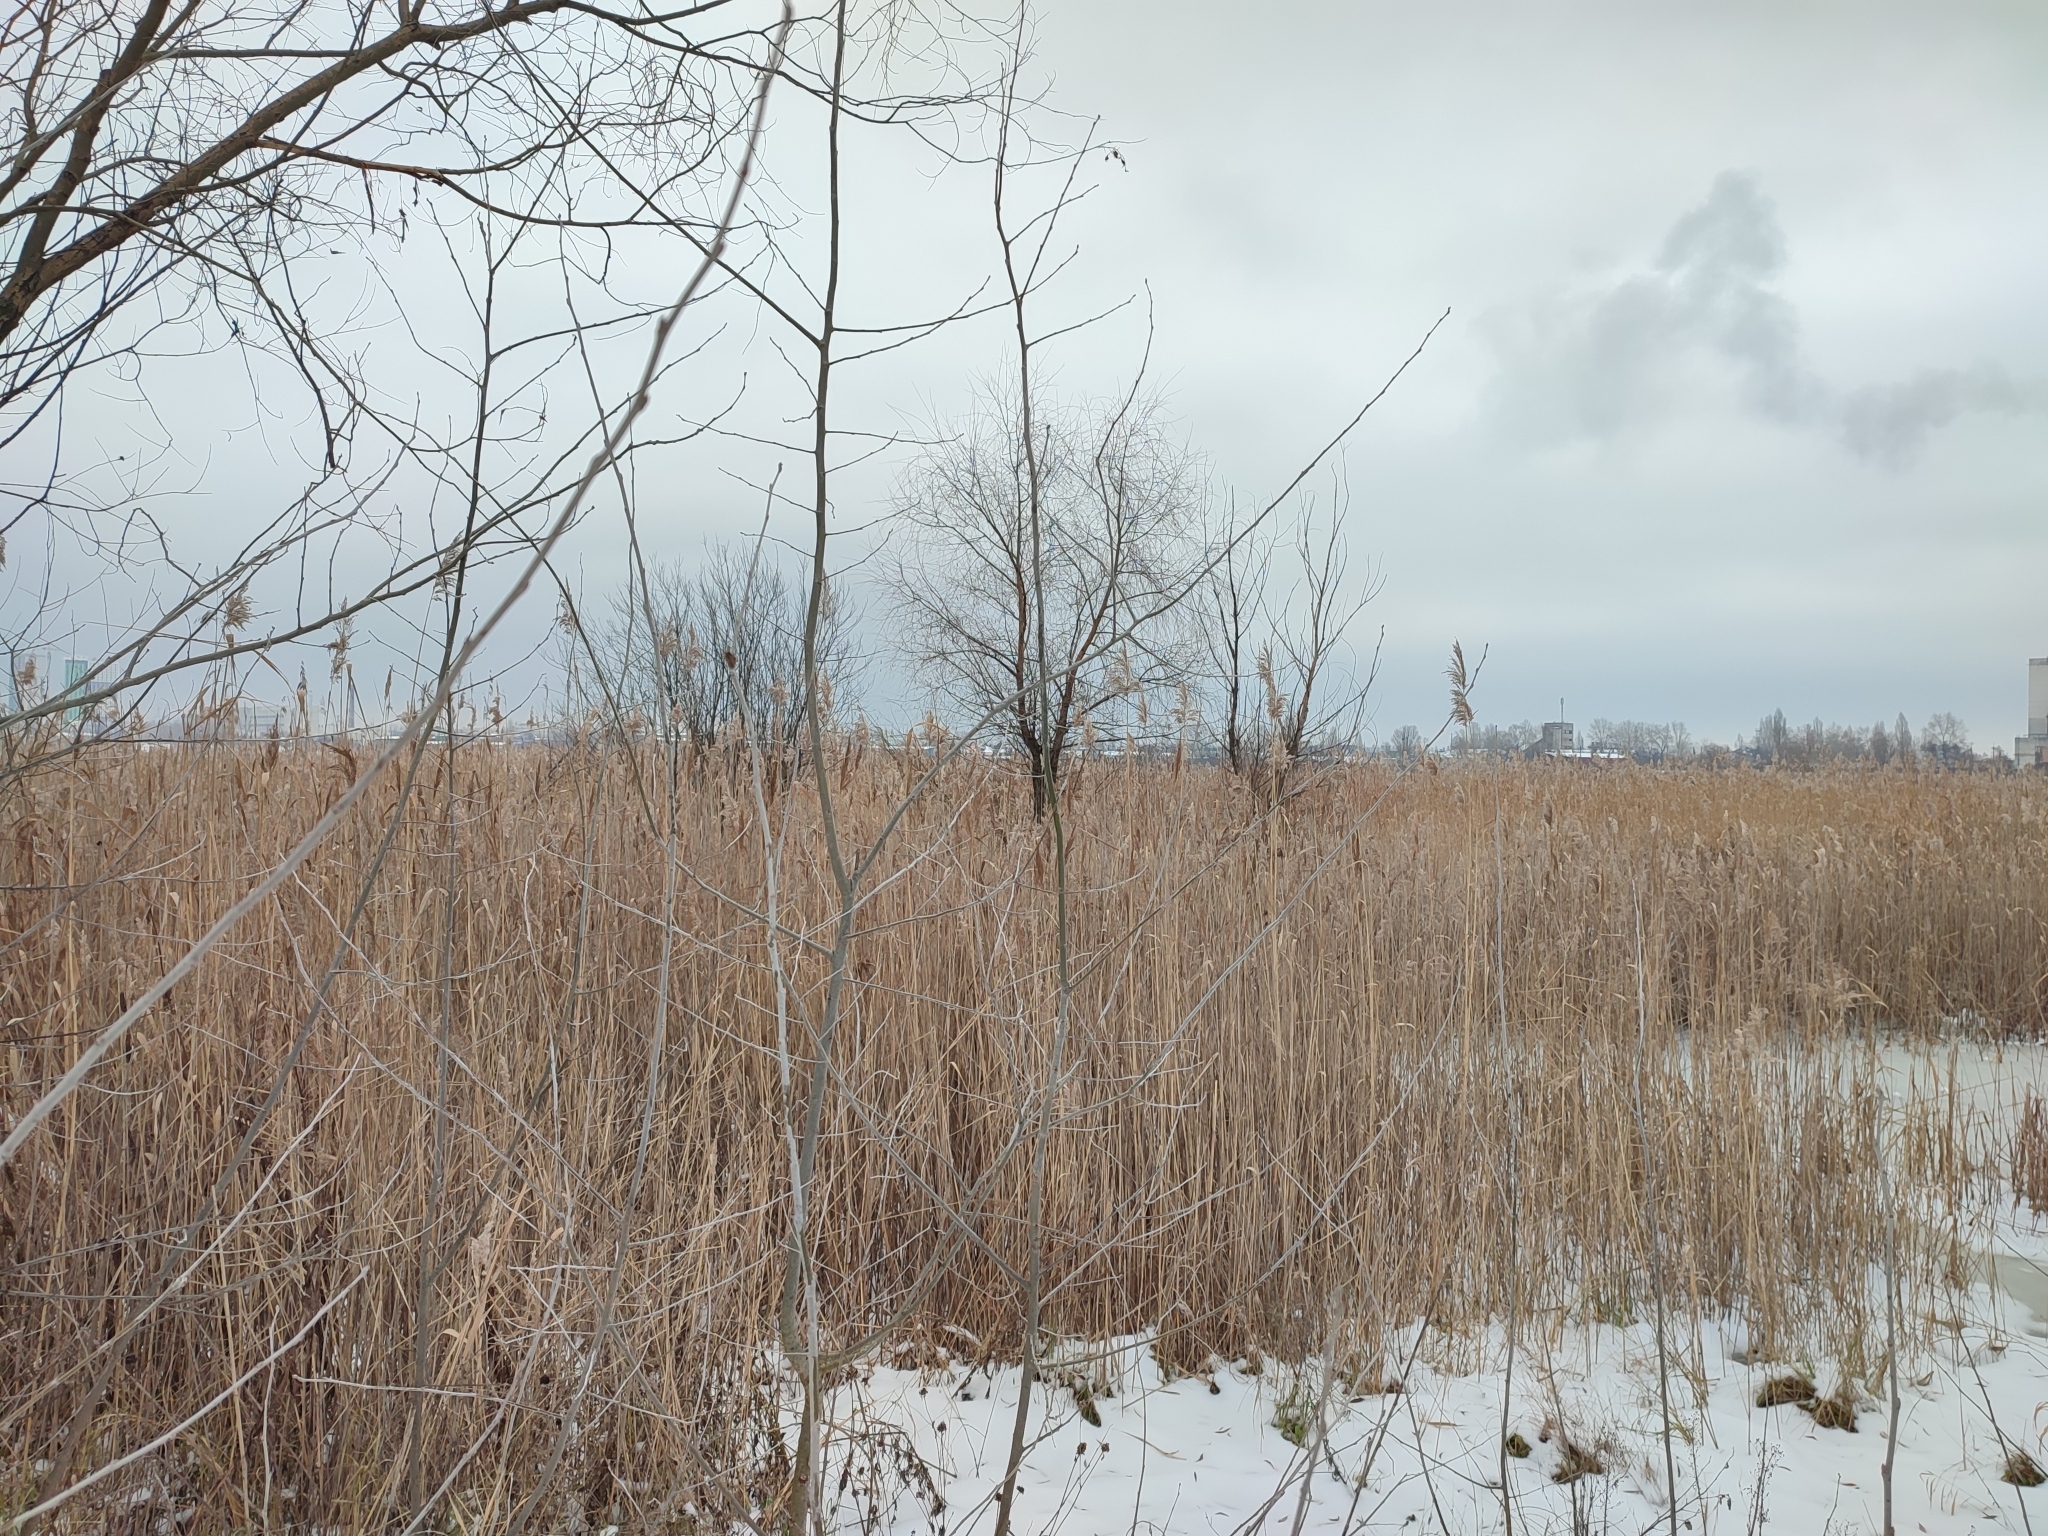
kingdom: Plantae
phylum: Tracheophyta
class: Liliopsida
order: Poales
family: Poaceae
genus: Phragmites
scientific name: Phragmites australis
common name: Common reed
